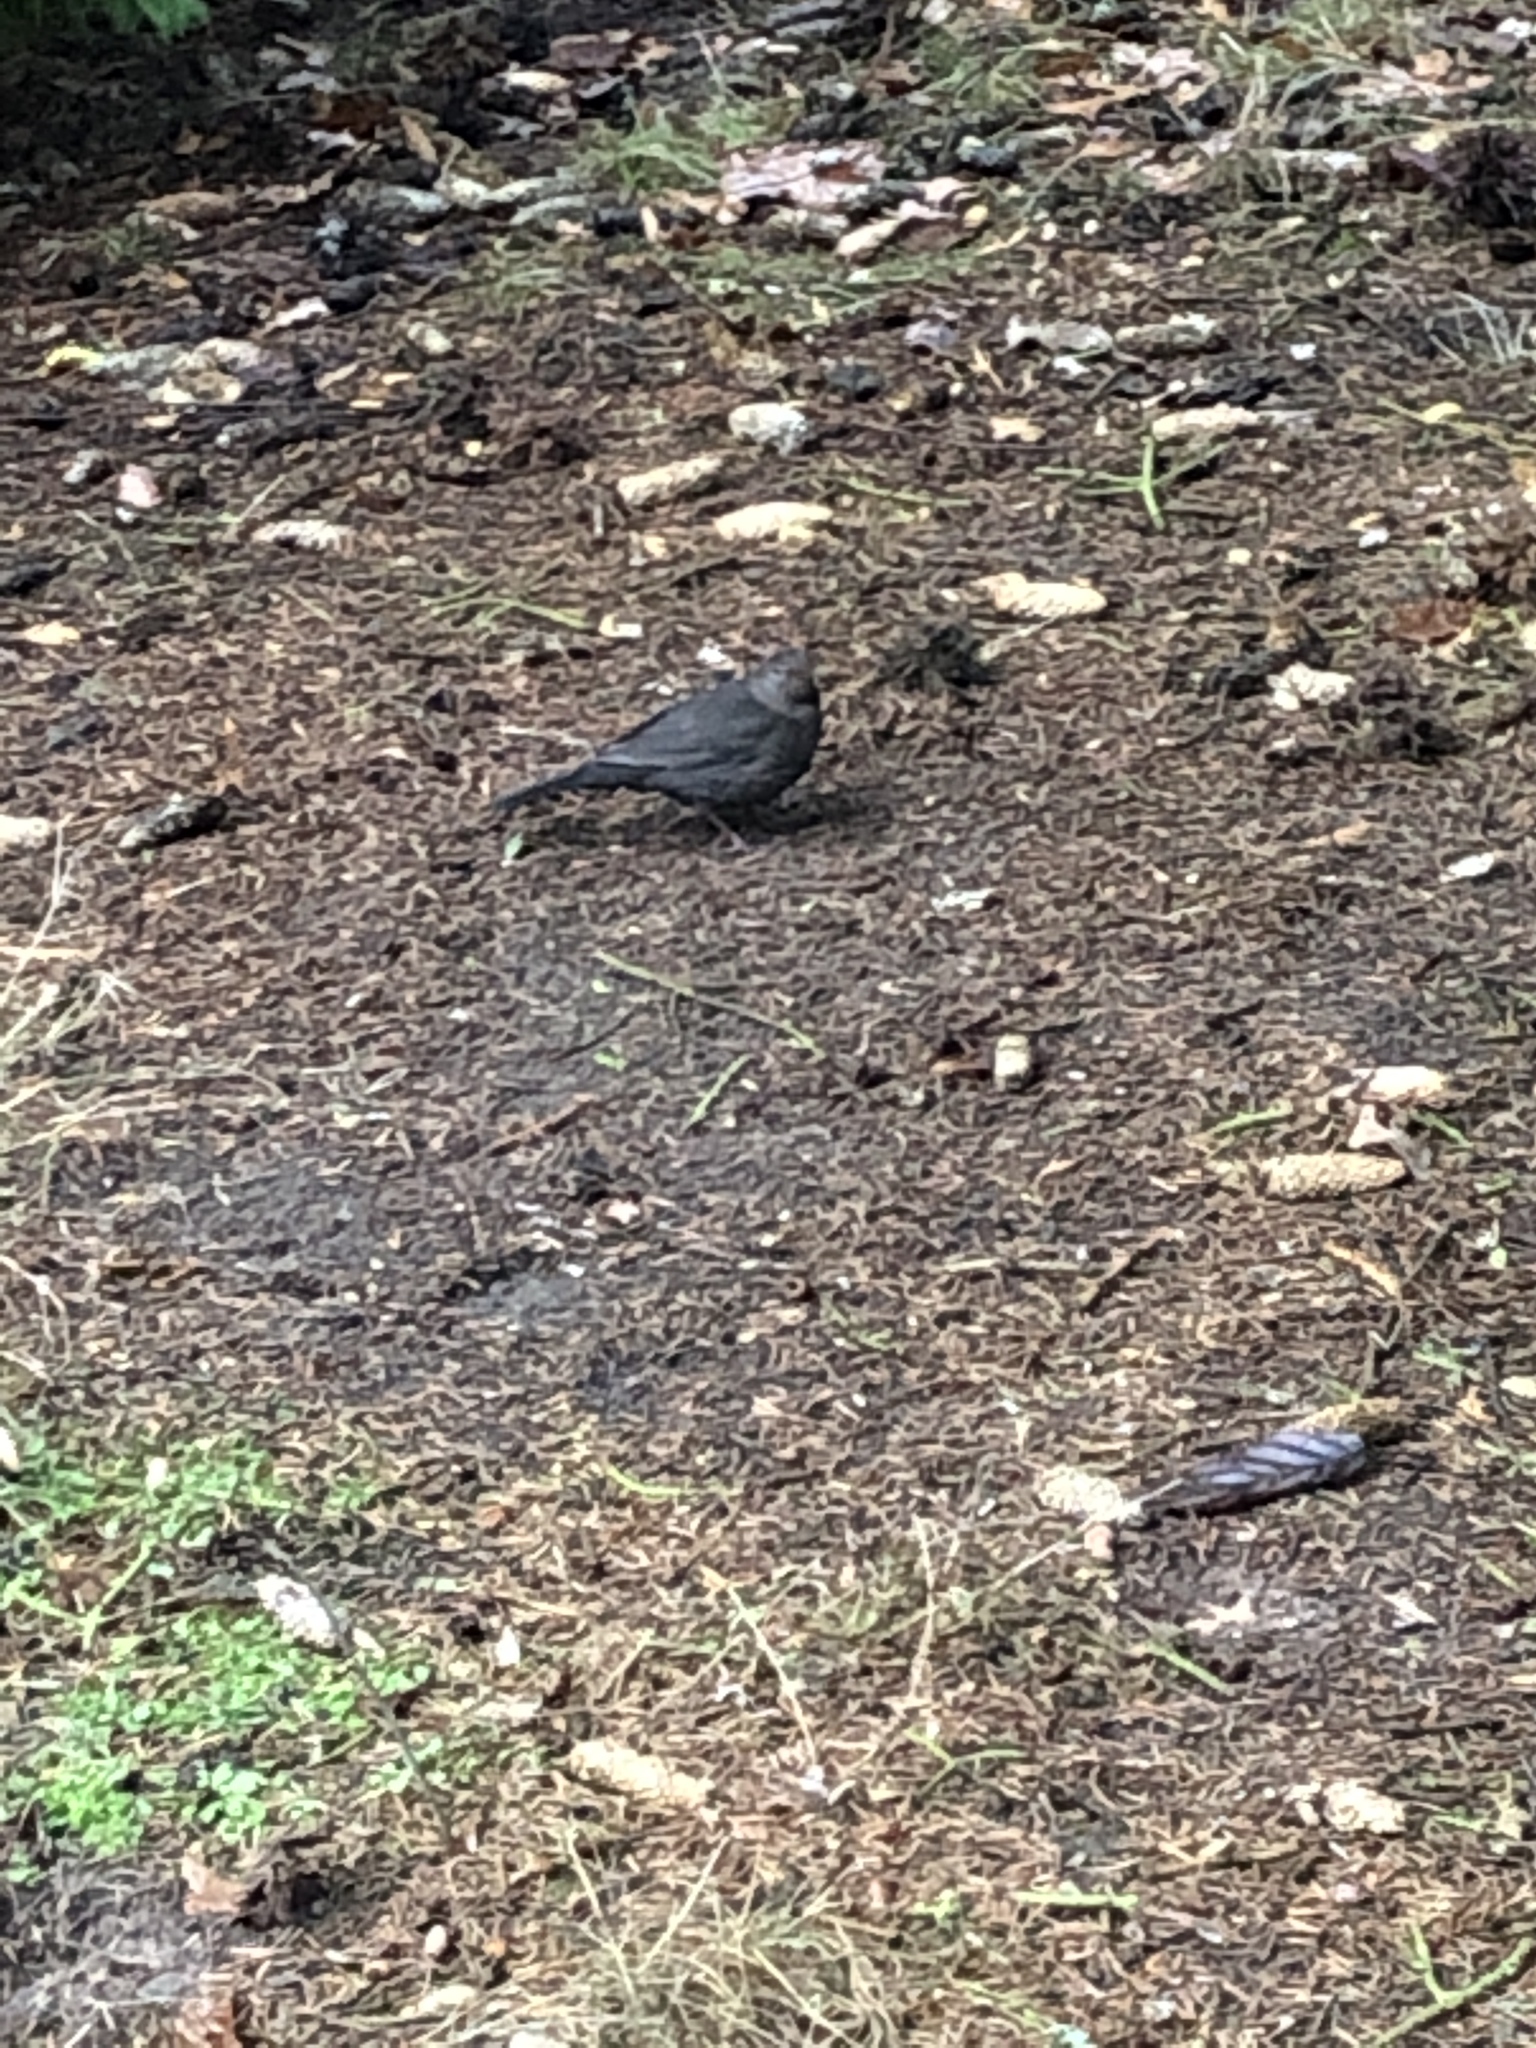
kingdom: Animalia
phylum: Chordata
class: Aves
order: Passeriformes
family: Turdidae
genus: Turdus
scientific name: Turdus merula
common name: Common blackbird
